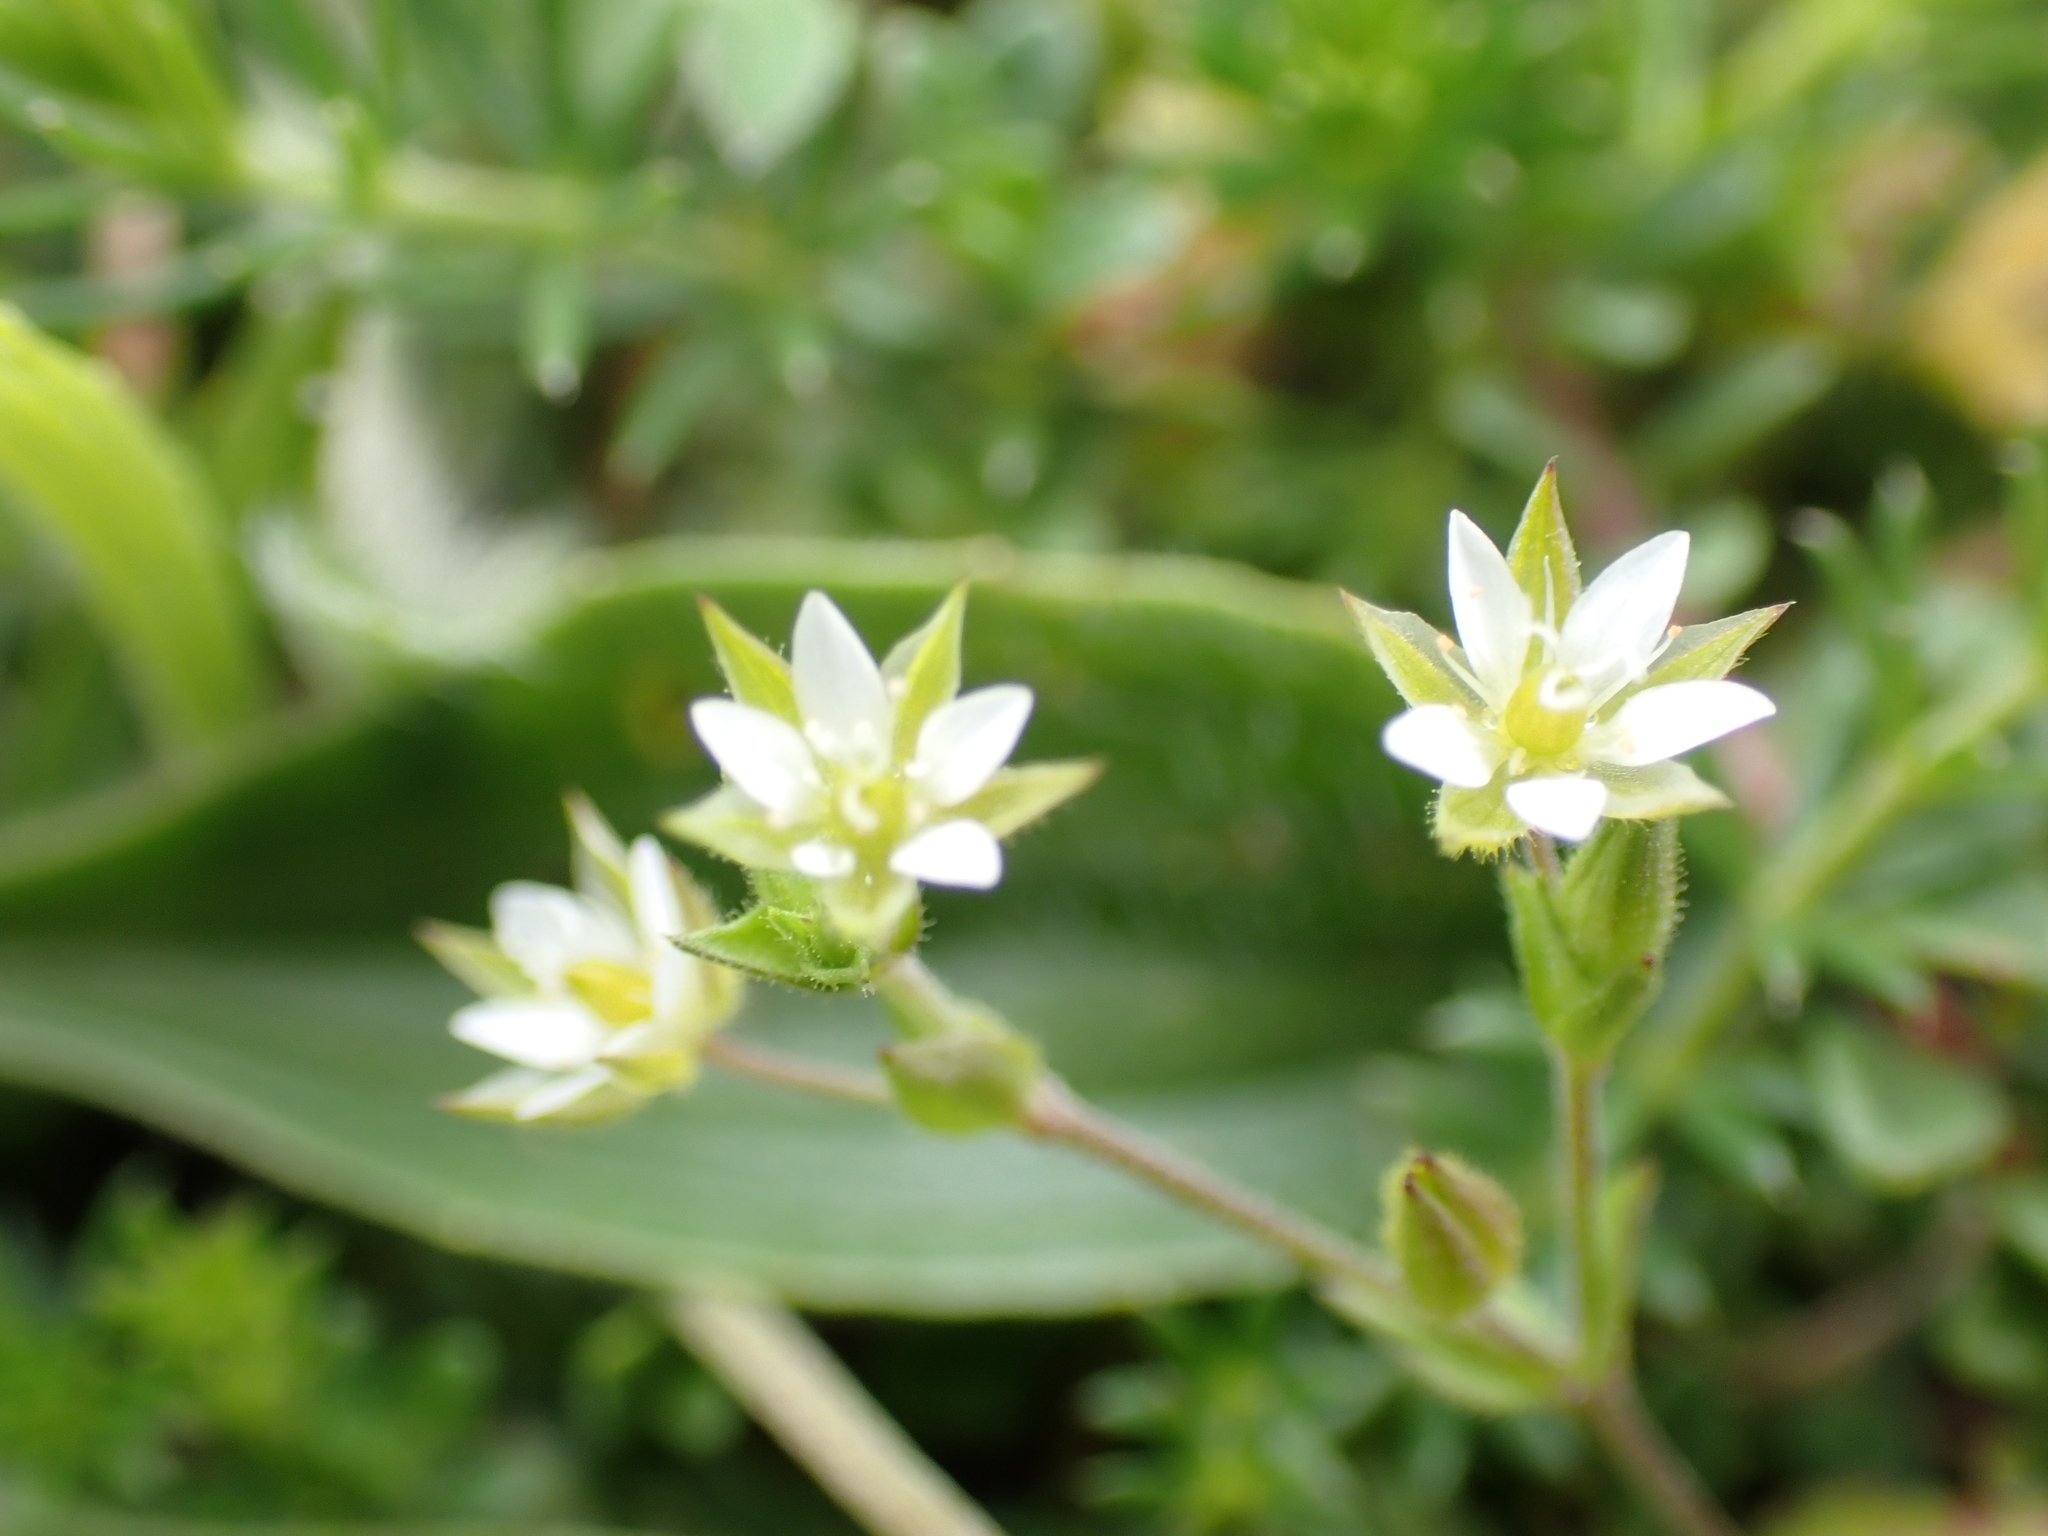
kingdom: Plantae
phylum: Tracheophyta
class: Magnoliopsida
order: Caryophyllales
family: Caryophyllaceae
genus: Arenaria
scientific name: Arenaria serpyllifolia
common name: Thyme-leaved sandwort
